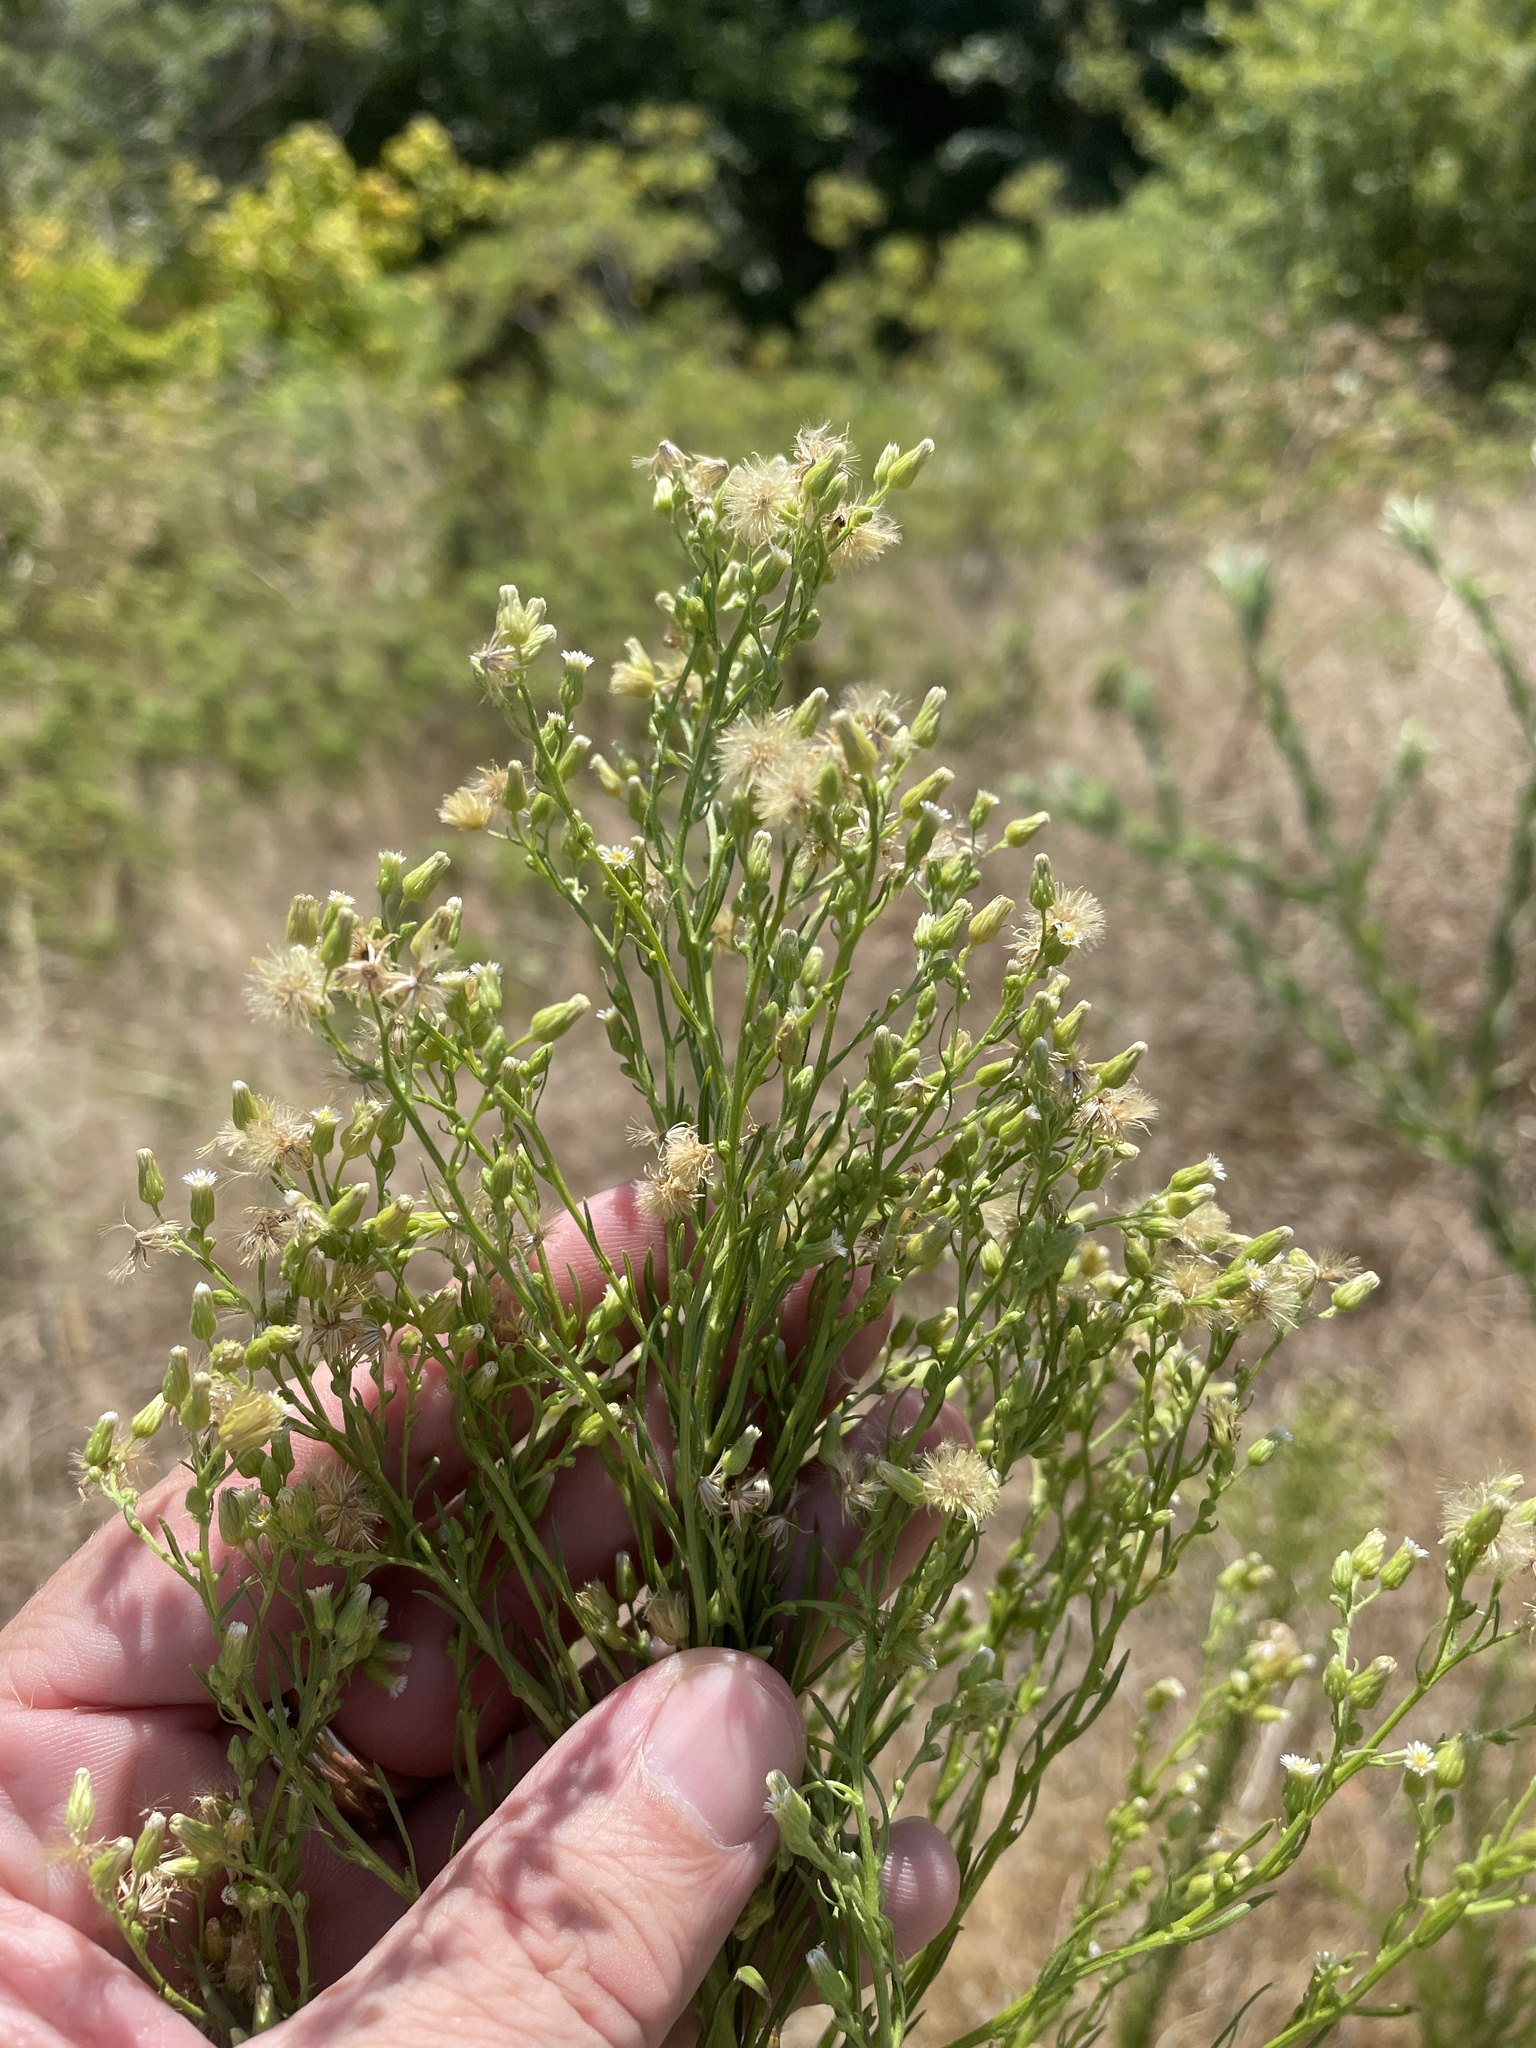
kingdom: Plantae
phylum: Tracheophyta
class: Magnoliopsida
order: Asterales
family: Asteraceae
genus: Erigeron
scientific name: Erigeron canadensis
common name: Canadian fleabane
